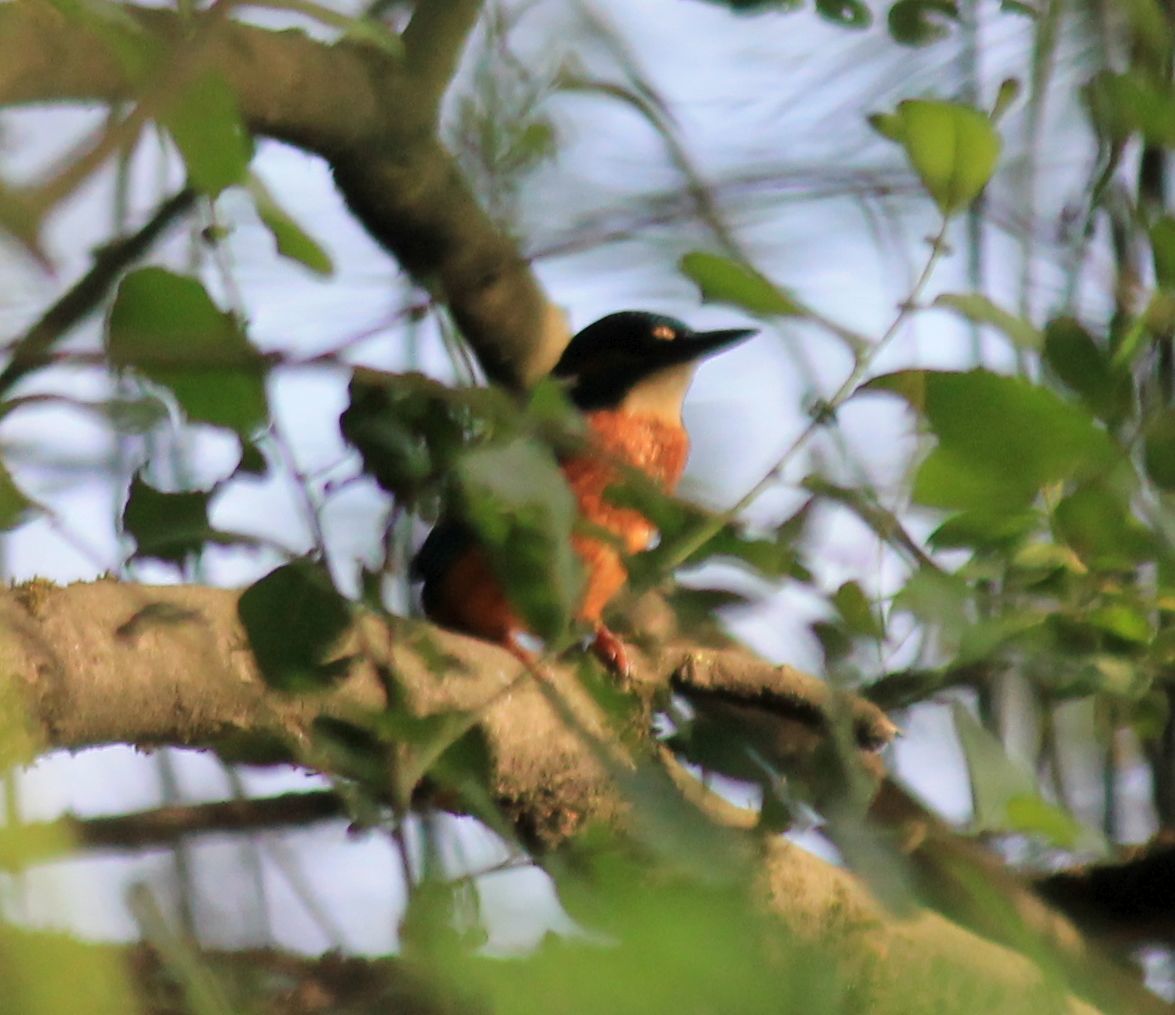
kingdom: Animalia
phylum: Chordata
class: Aves
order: Coraciiformes
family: Alcedinidae
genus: Alcedo
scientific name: Alcedo atthis
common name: Common kingfisher
